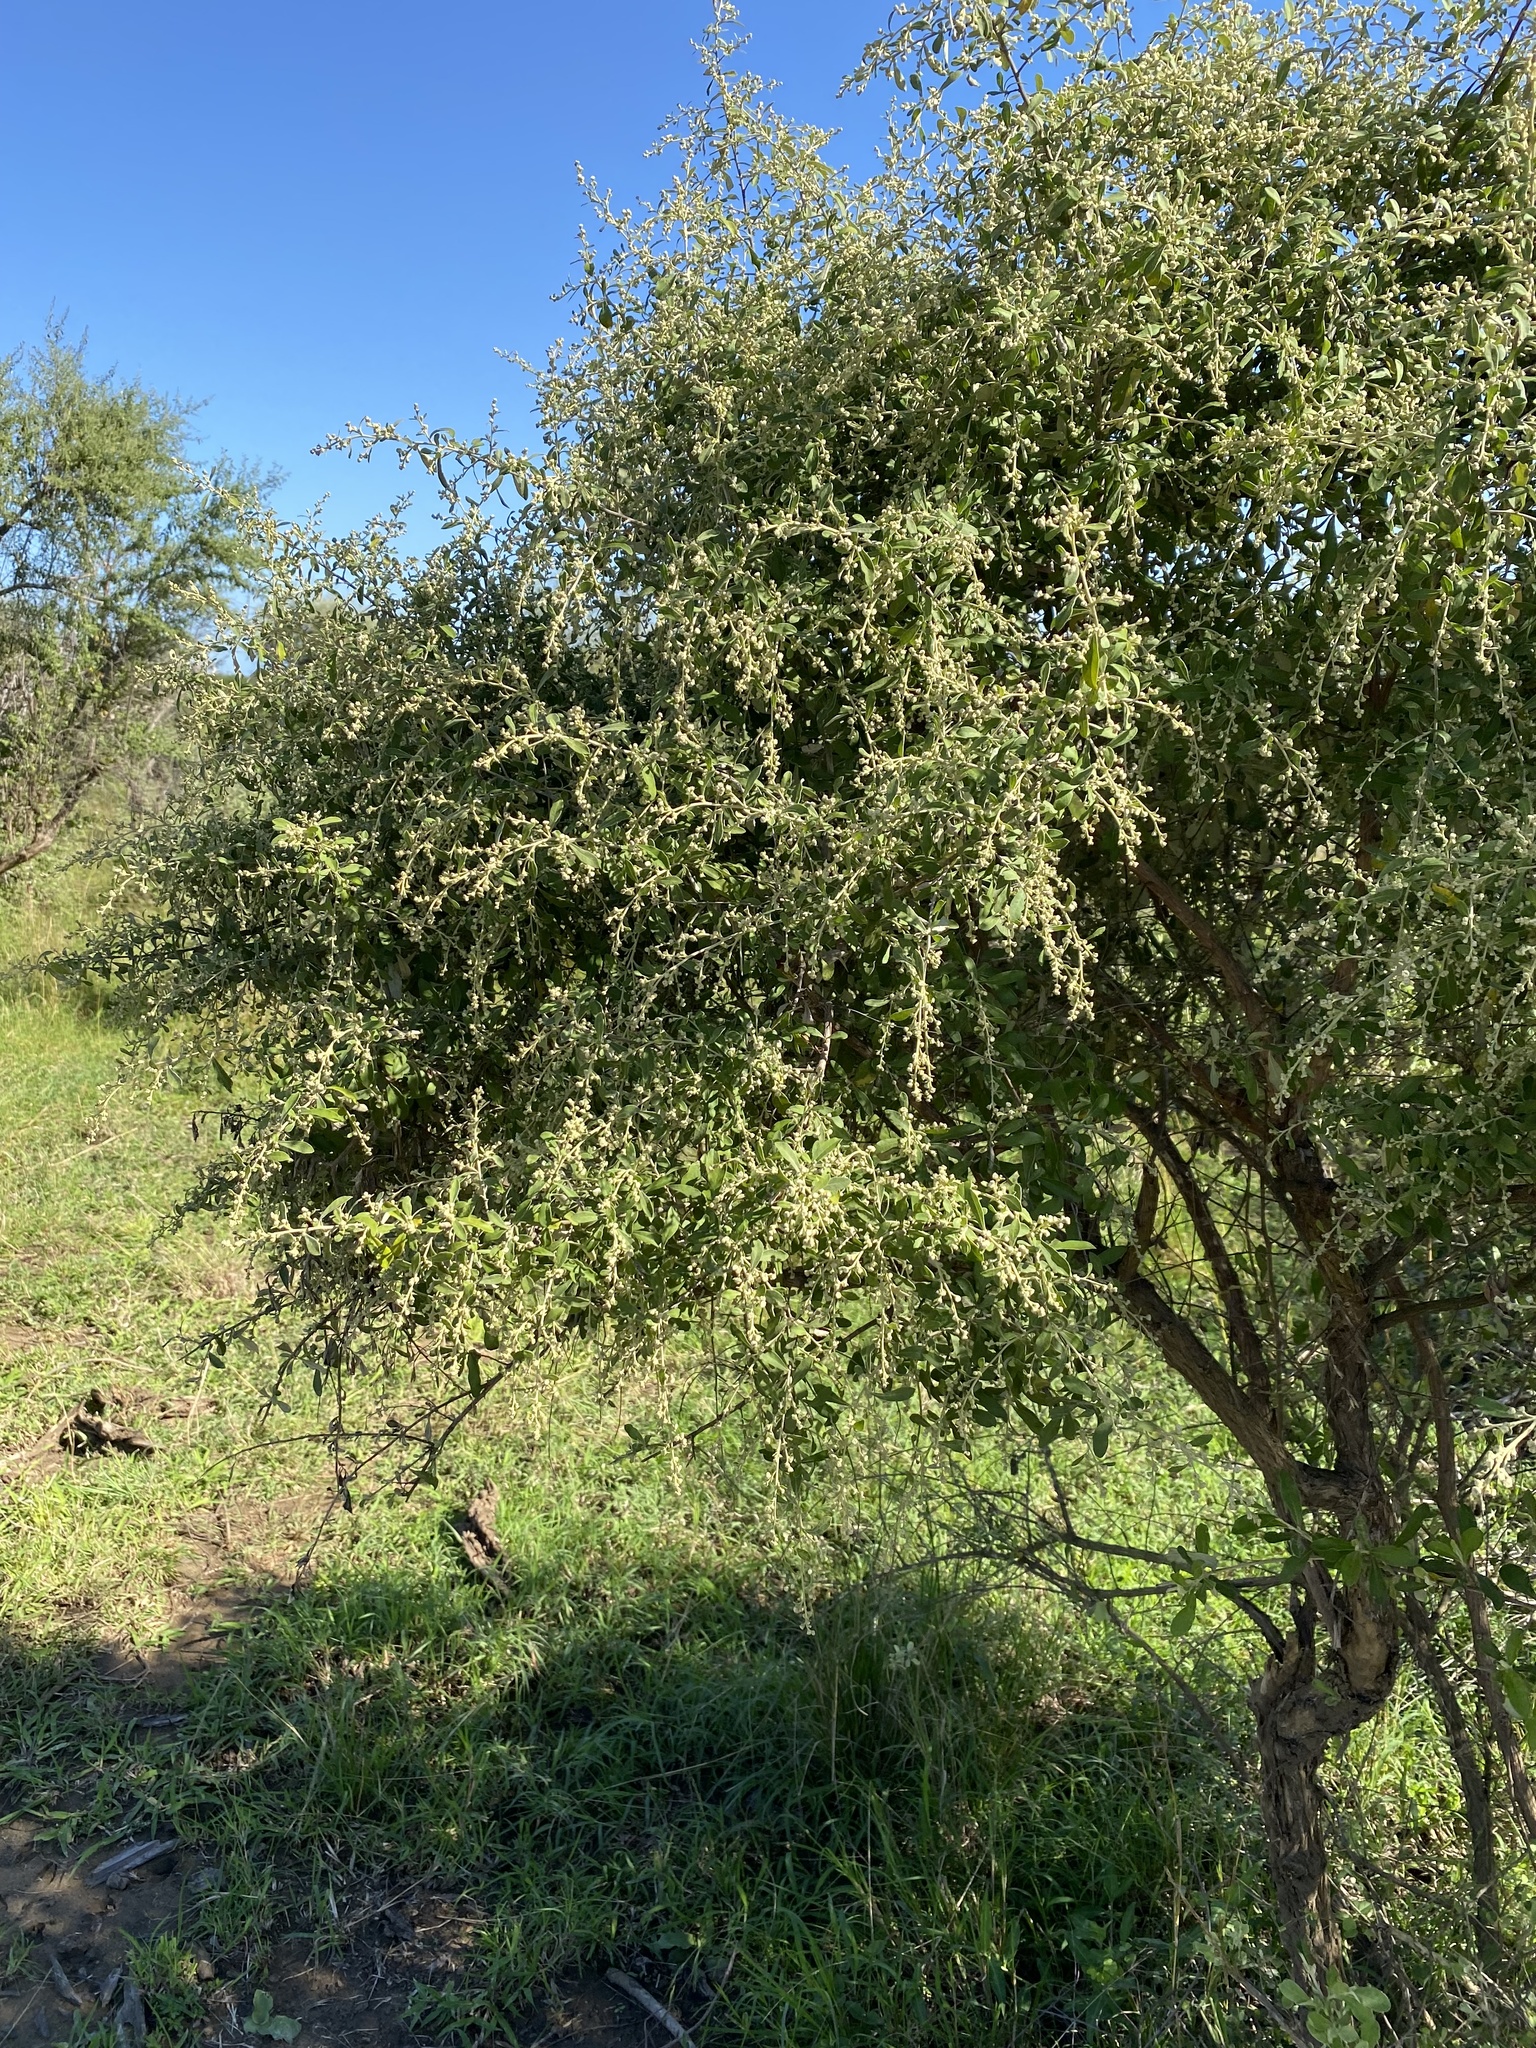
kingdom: Plantae
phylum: Tracheophyta
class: Magnoliopsida
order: Asterales
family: Asteraceae
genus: Tarchonanthus
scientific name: Tarchonanthus parvicapitulatus
